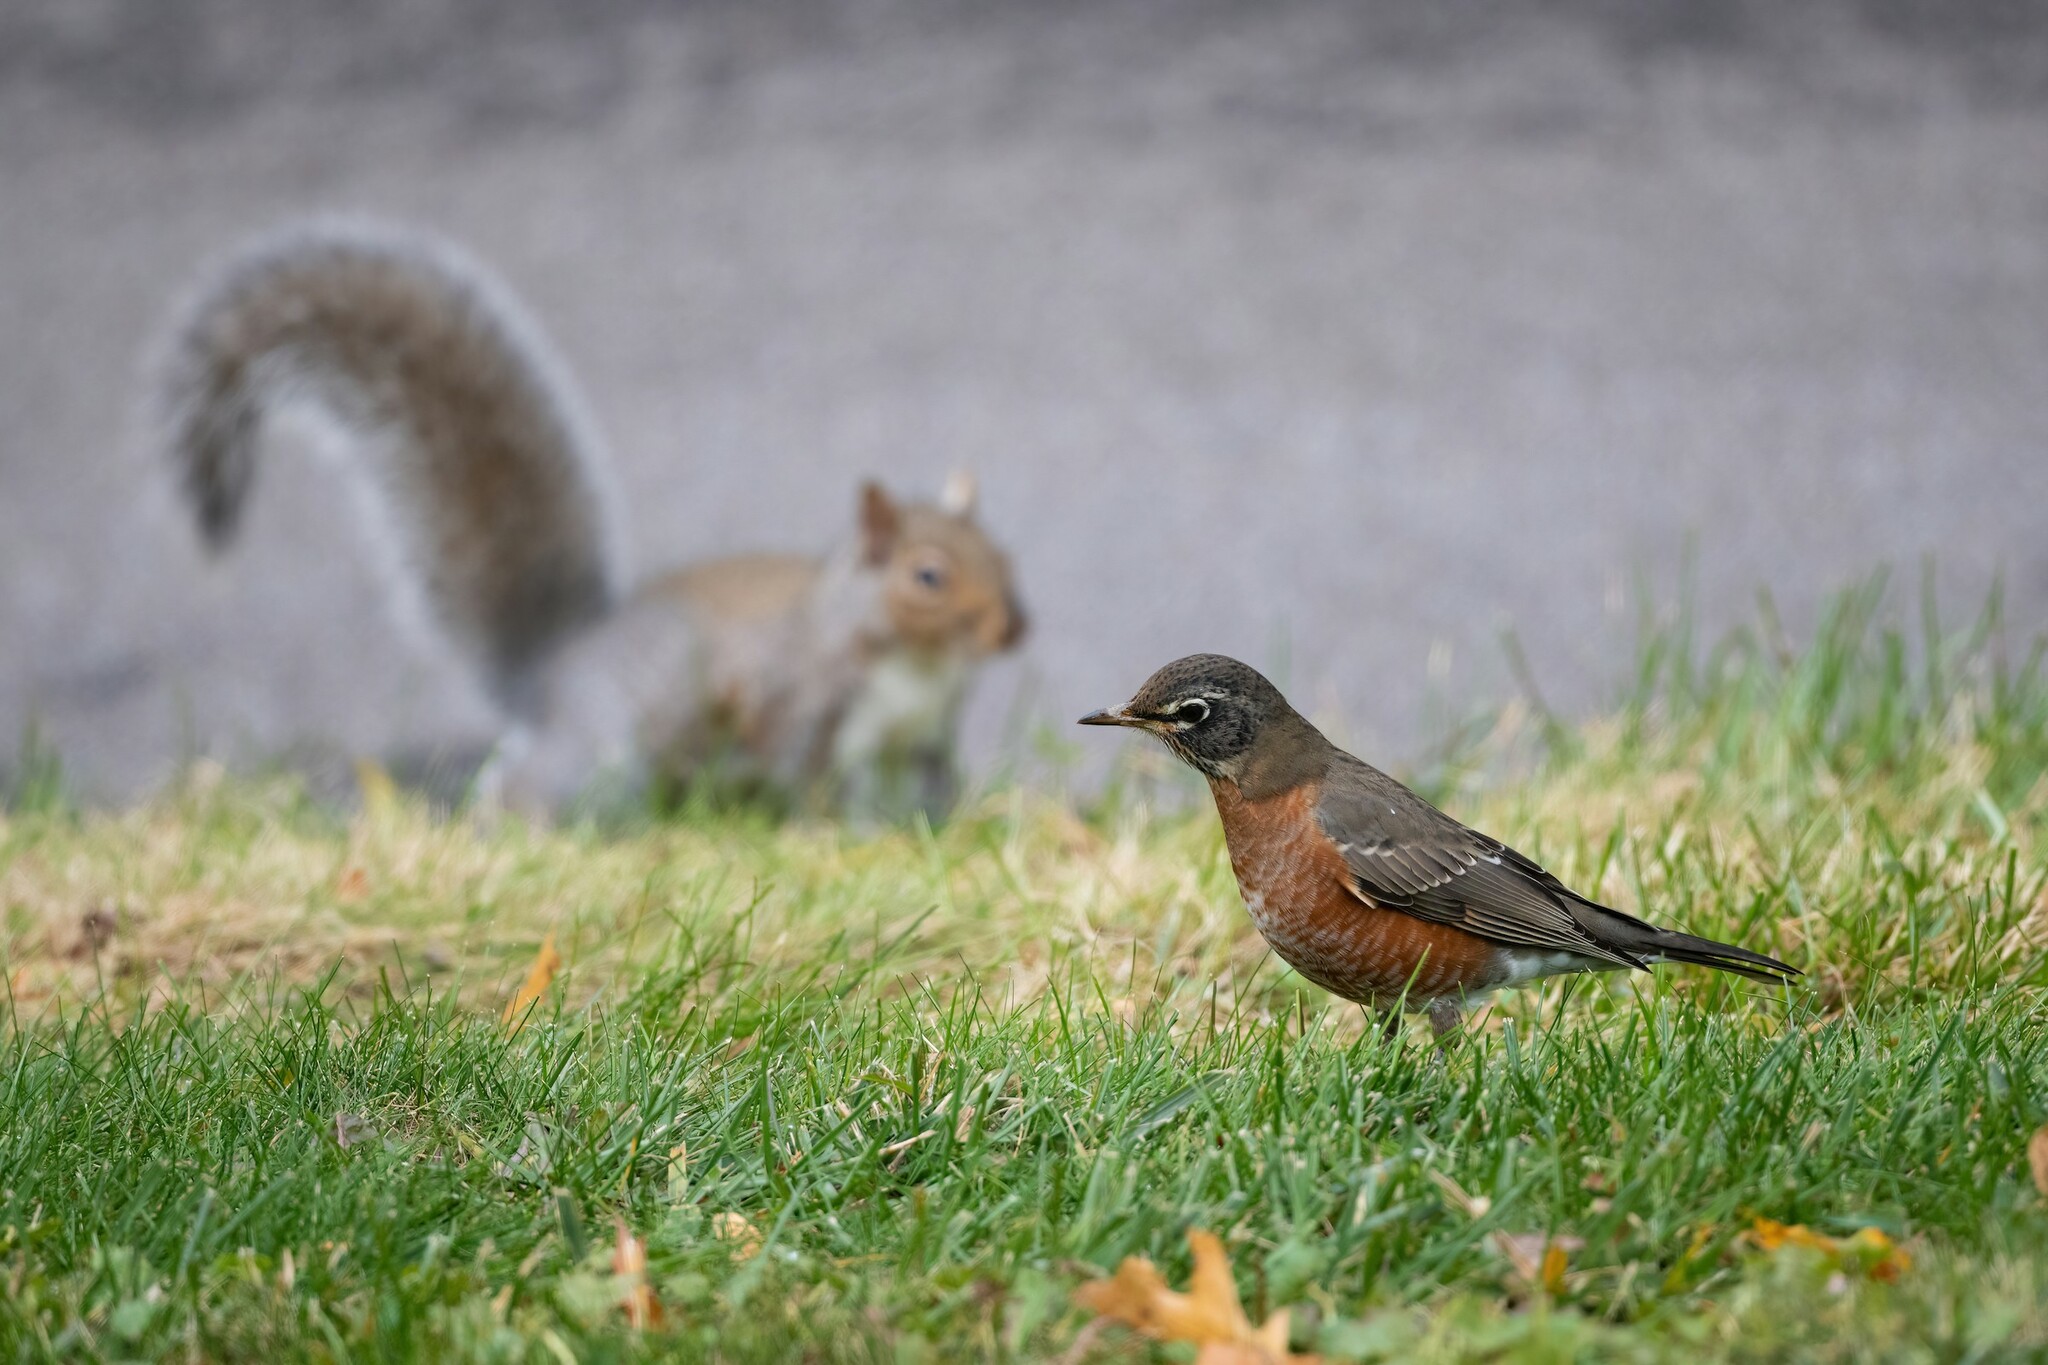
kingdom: Animalia
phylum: Chordata
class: Aves
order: Passeriformes
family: Turdidae
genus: Turdus
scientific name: Turdus migratorius
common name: American robin
